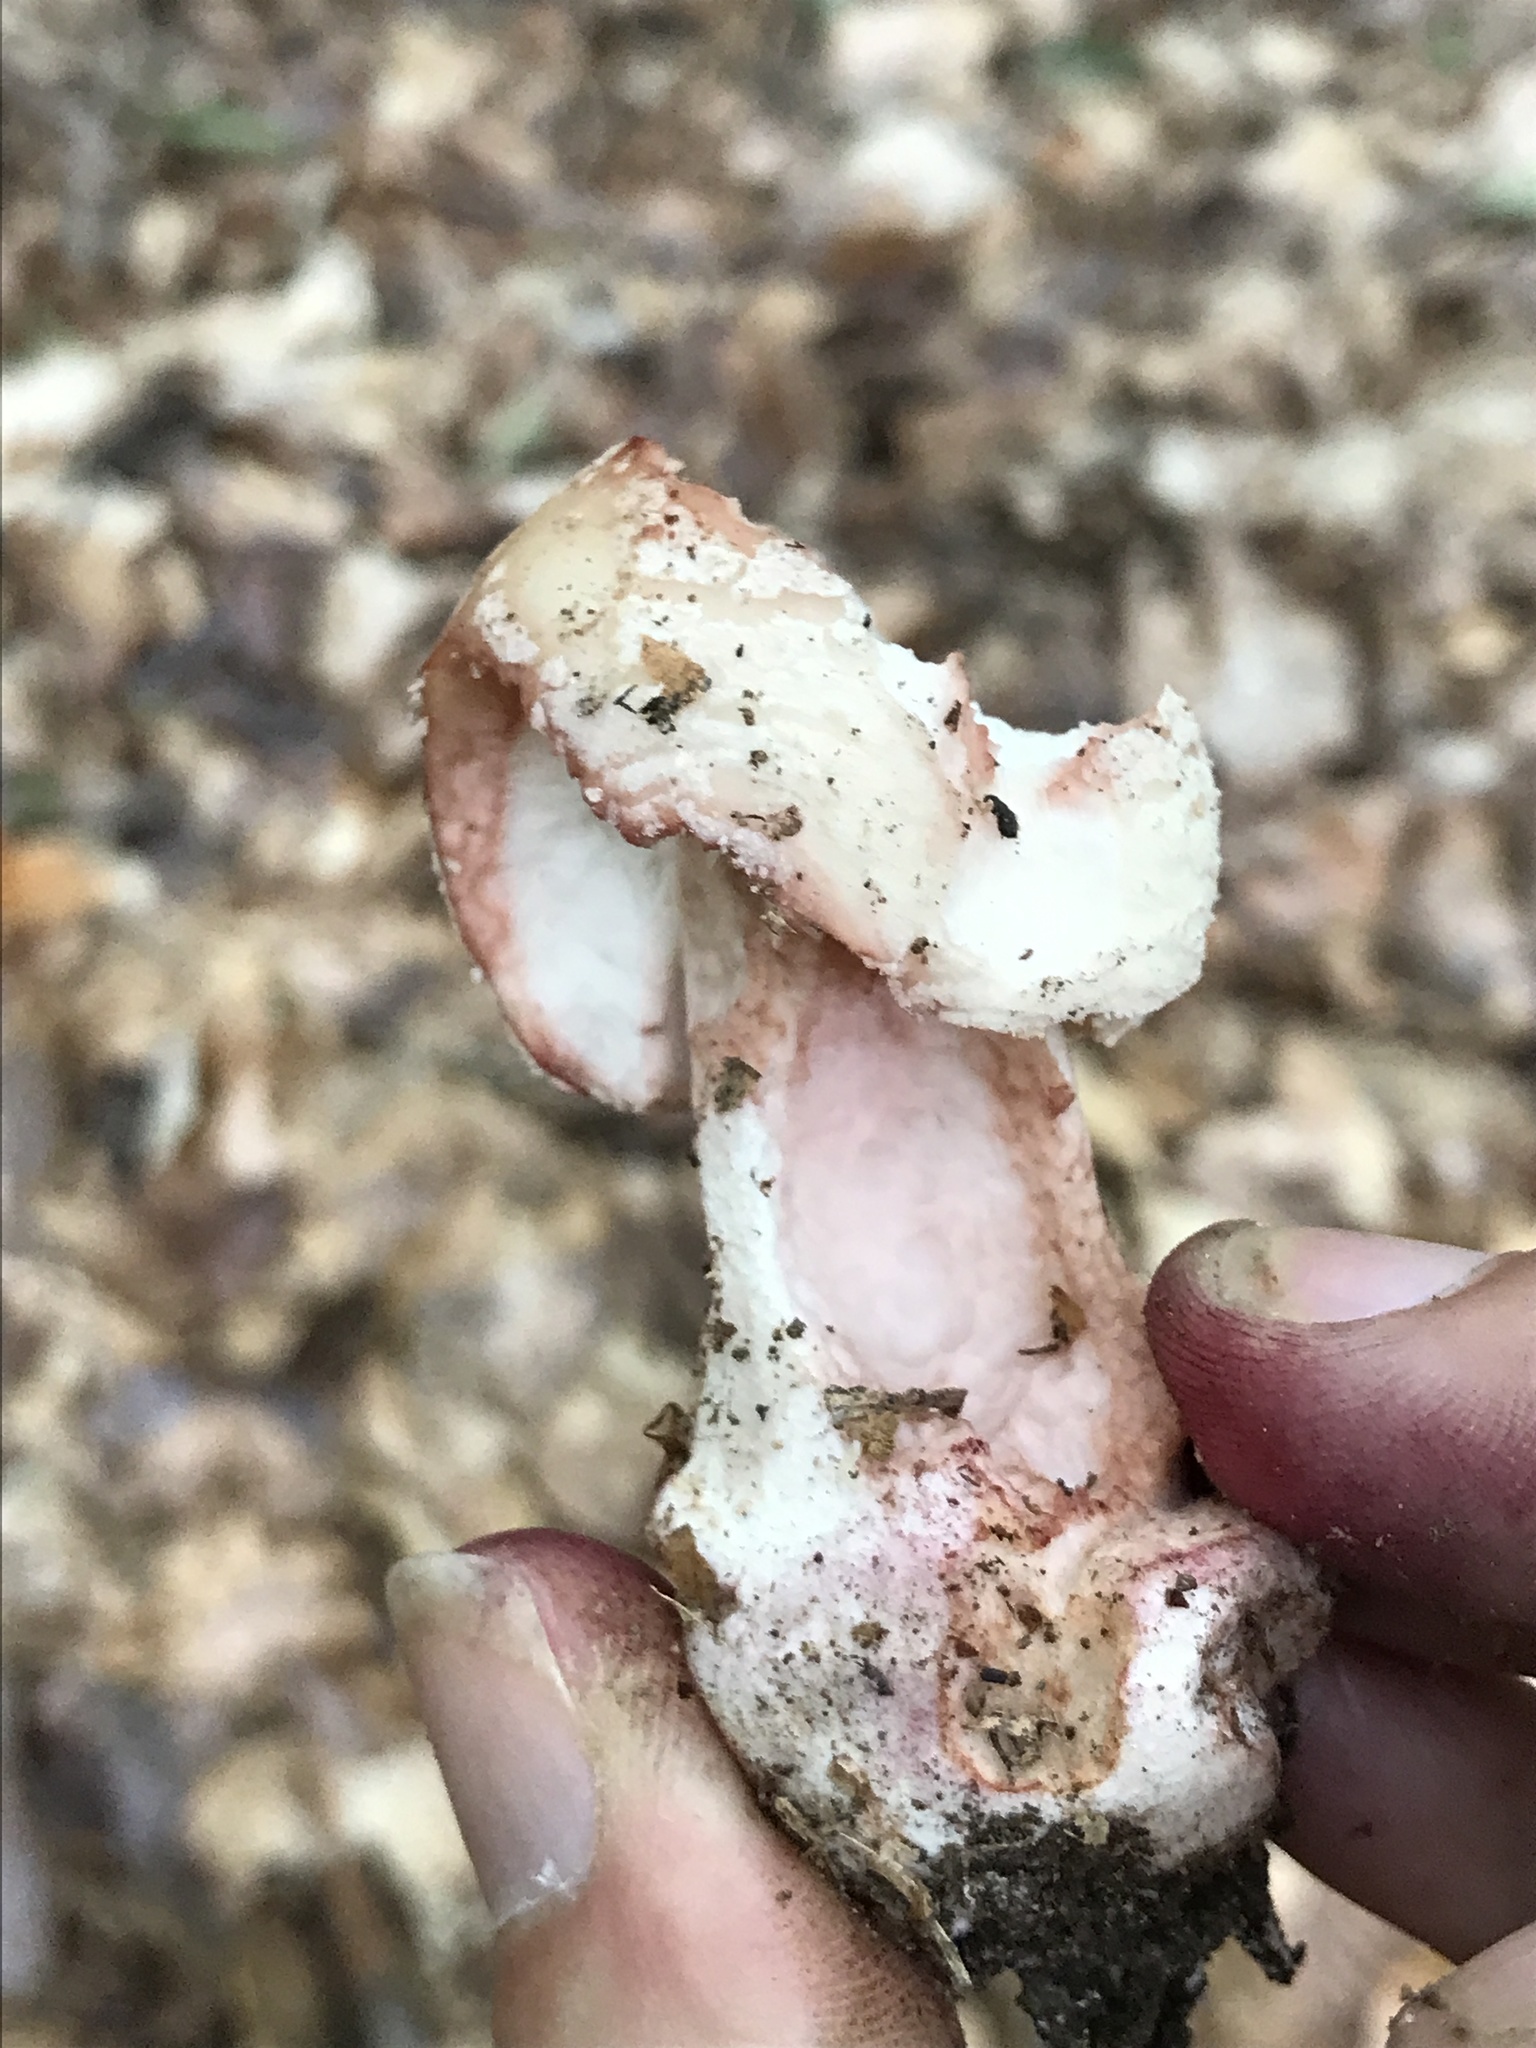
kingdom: Fungi
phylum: Basidiomycota
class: Agaricomycetes
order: Agaricales
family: Amanitaceae
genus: Amanita
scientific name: Amanita rubescens
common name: Blusher
